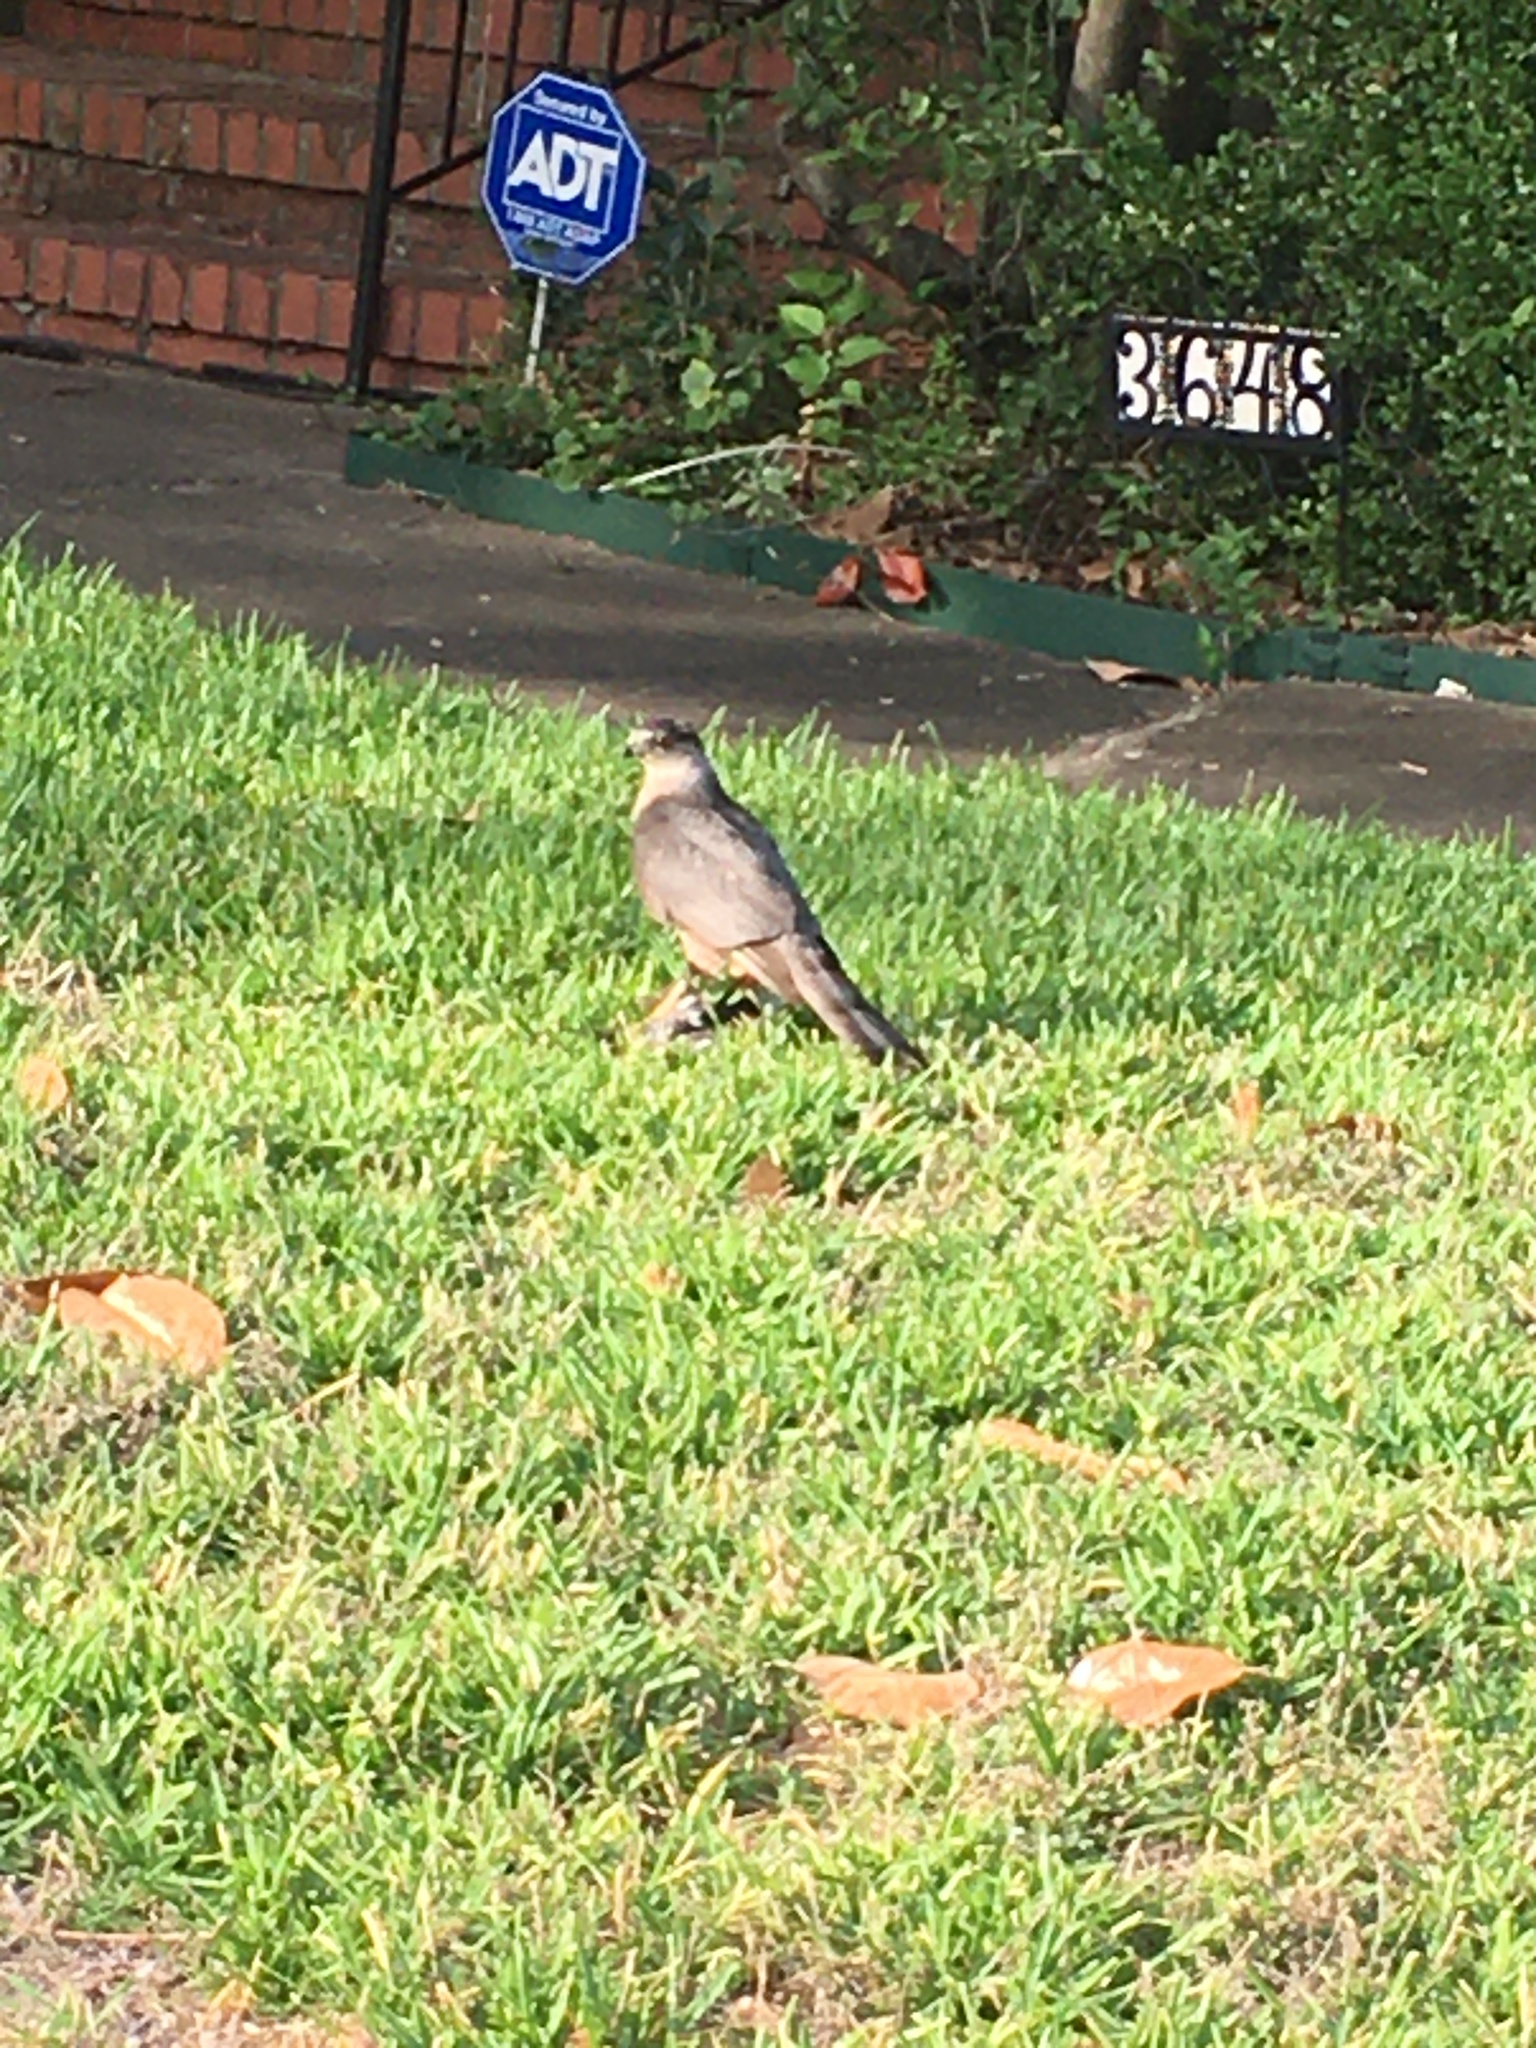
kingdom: Animalia
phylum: Chordata
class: Aves
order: Accipitriformes
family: Accipitridae
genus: Accipiter
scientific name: Accipiter cooperii
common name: Cooper's hawk
